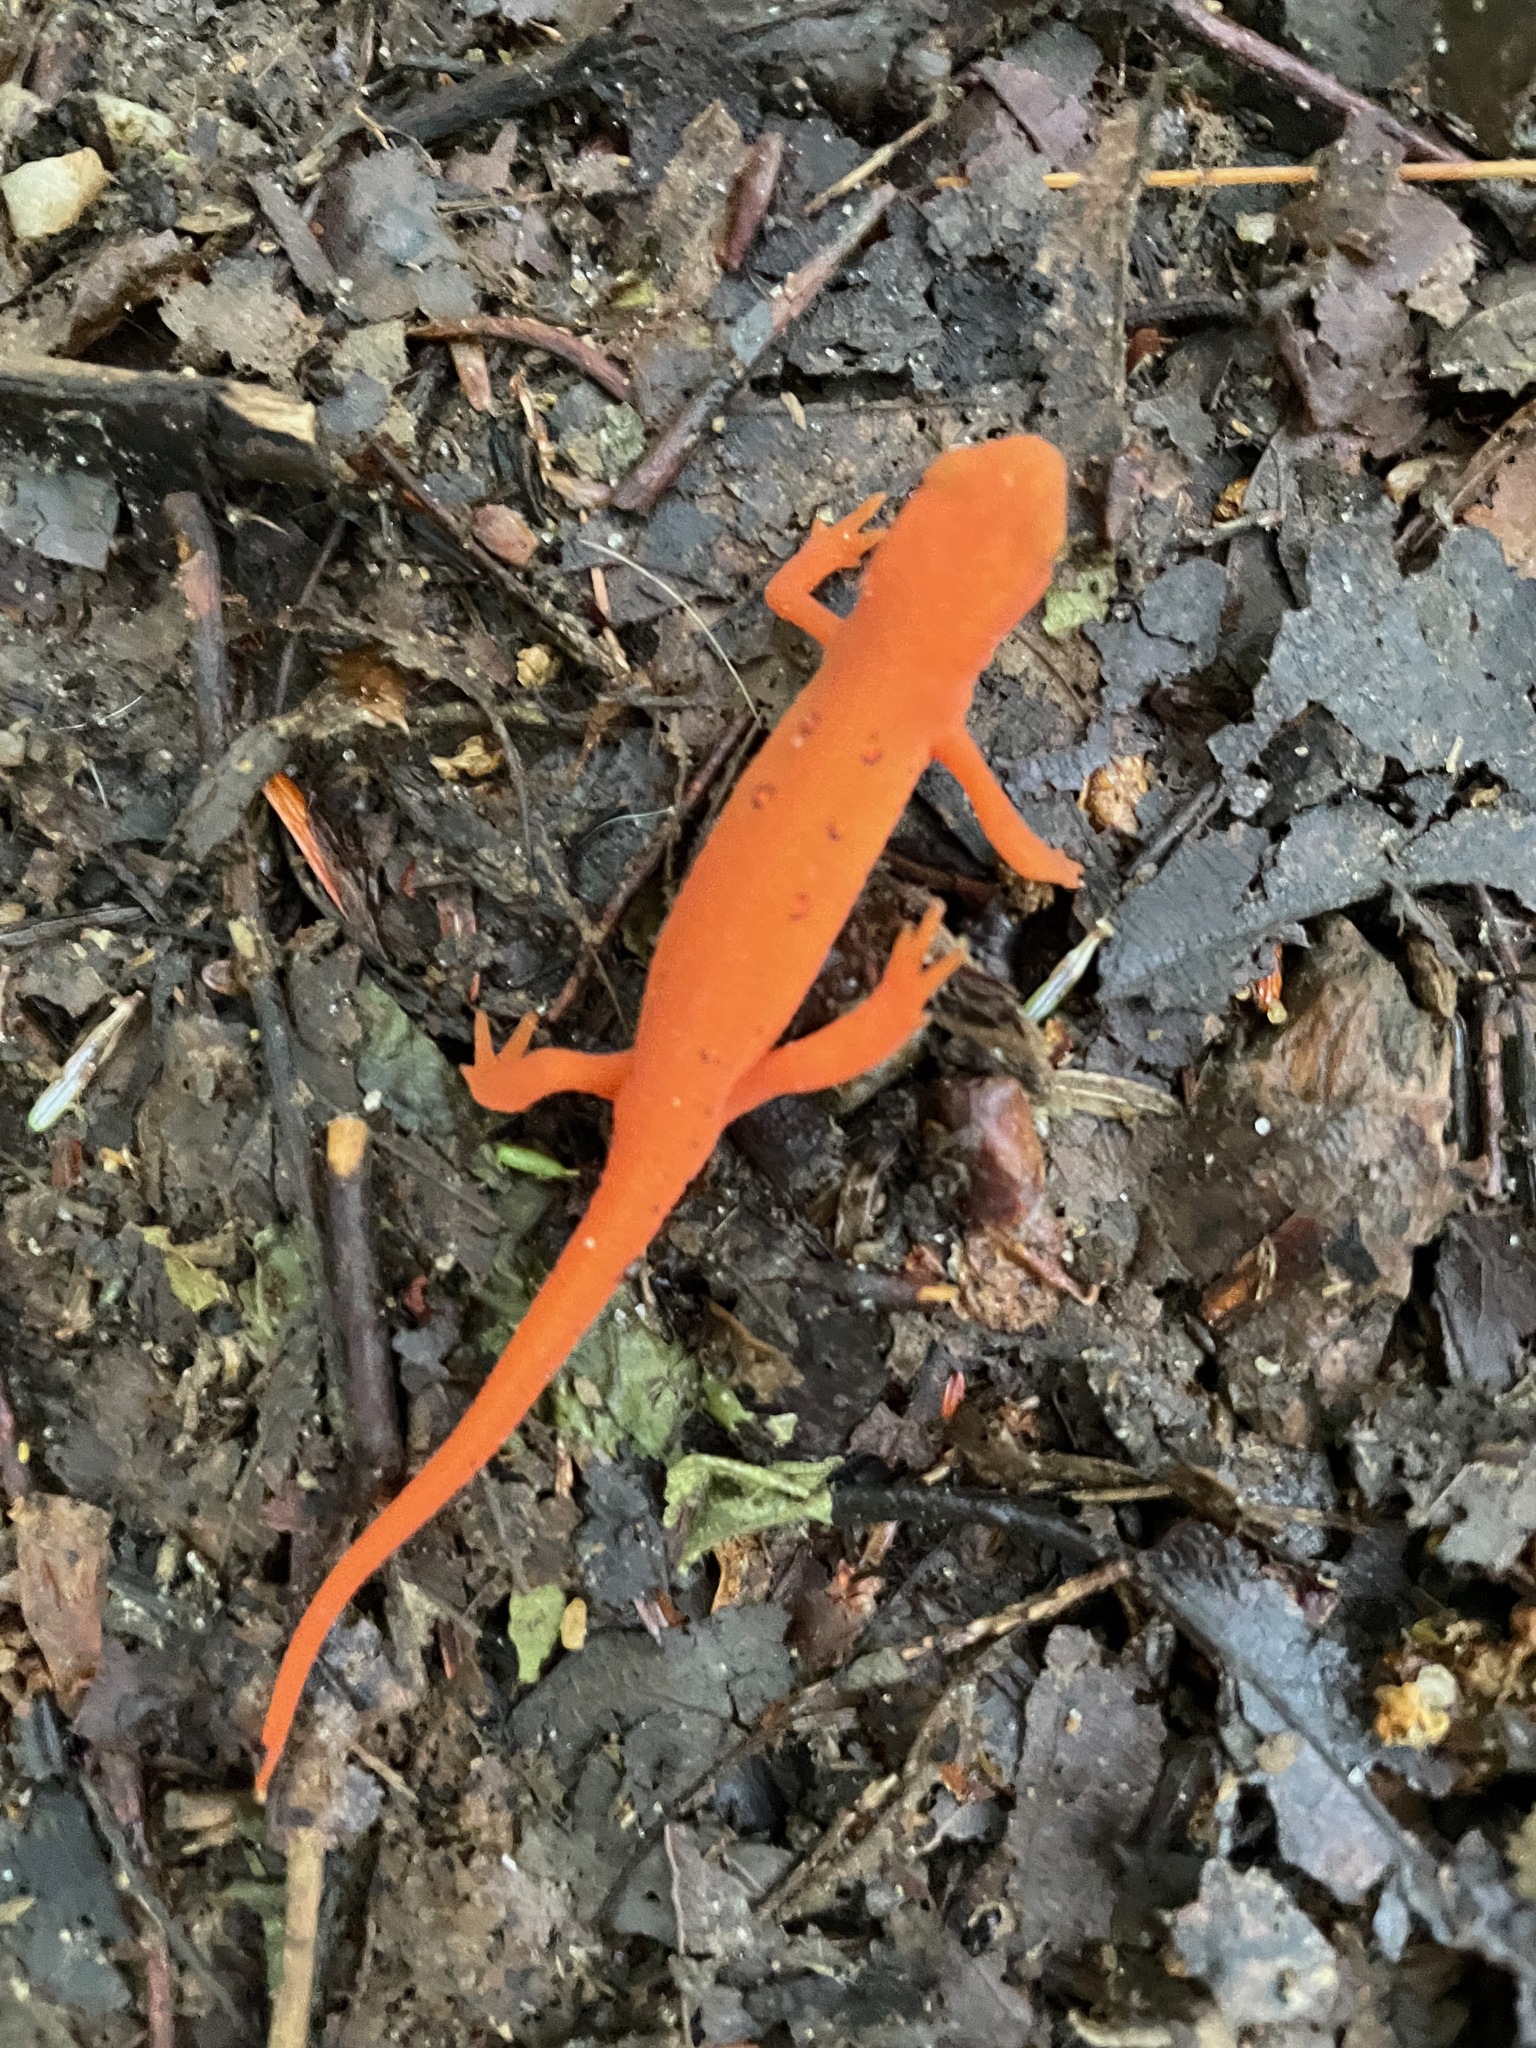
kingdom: Animalia
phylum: Chordata
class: Amphibia
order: Caudata
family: Salamandridae
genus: Notophthalmus
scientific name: Notophthalmus viridescens
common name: Eastern newt
